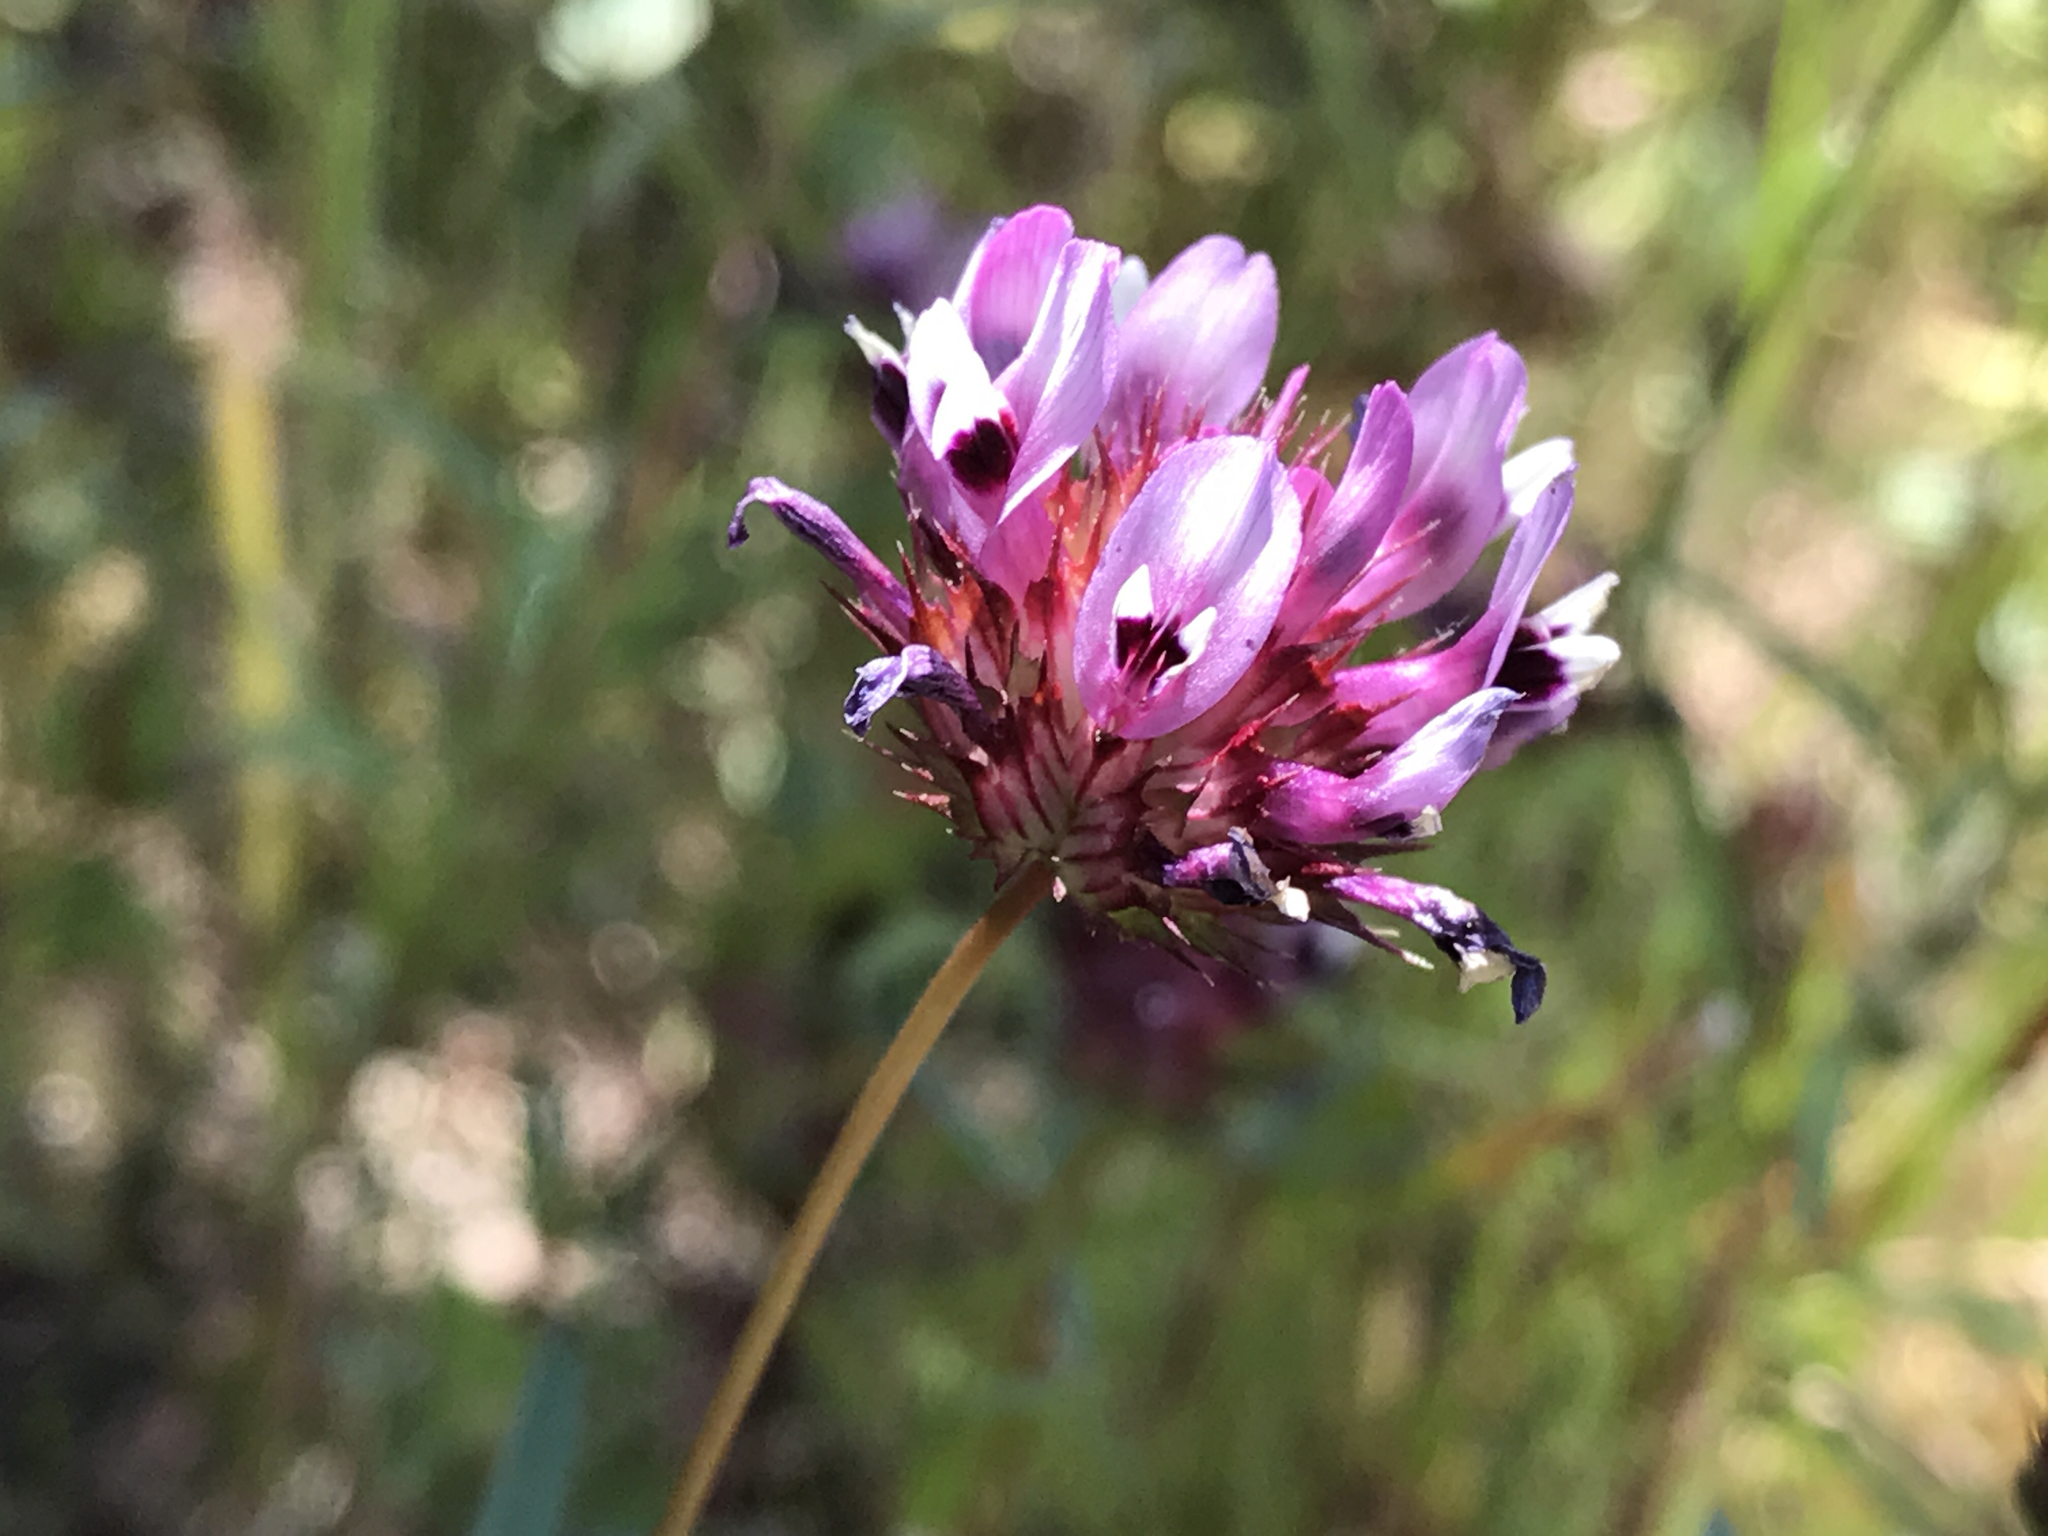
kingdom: Plantae
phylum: Tracheophyta
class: Magnoliopsida
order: Fabales
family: Fabaceae
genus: Trifolium
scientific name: Trifolium willdenovii
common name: Tomcat clover
